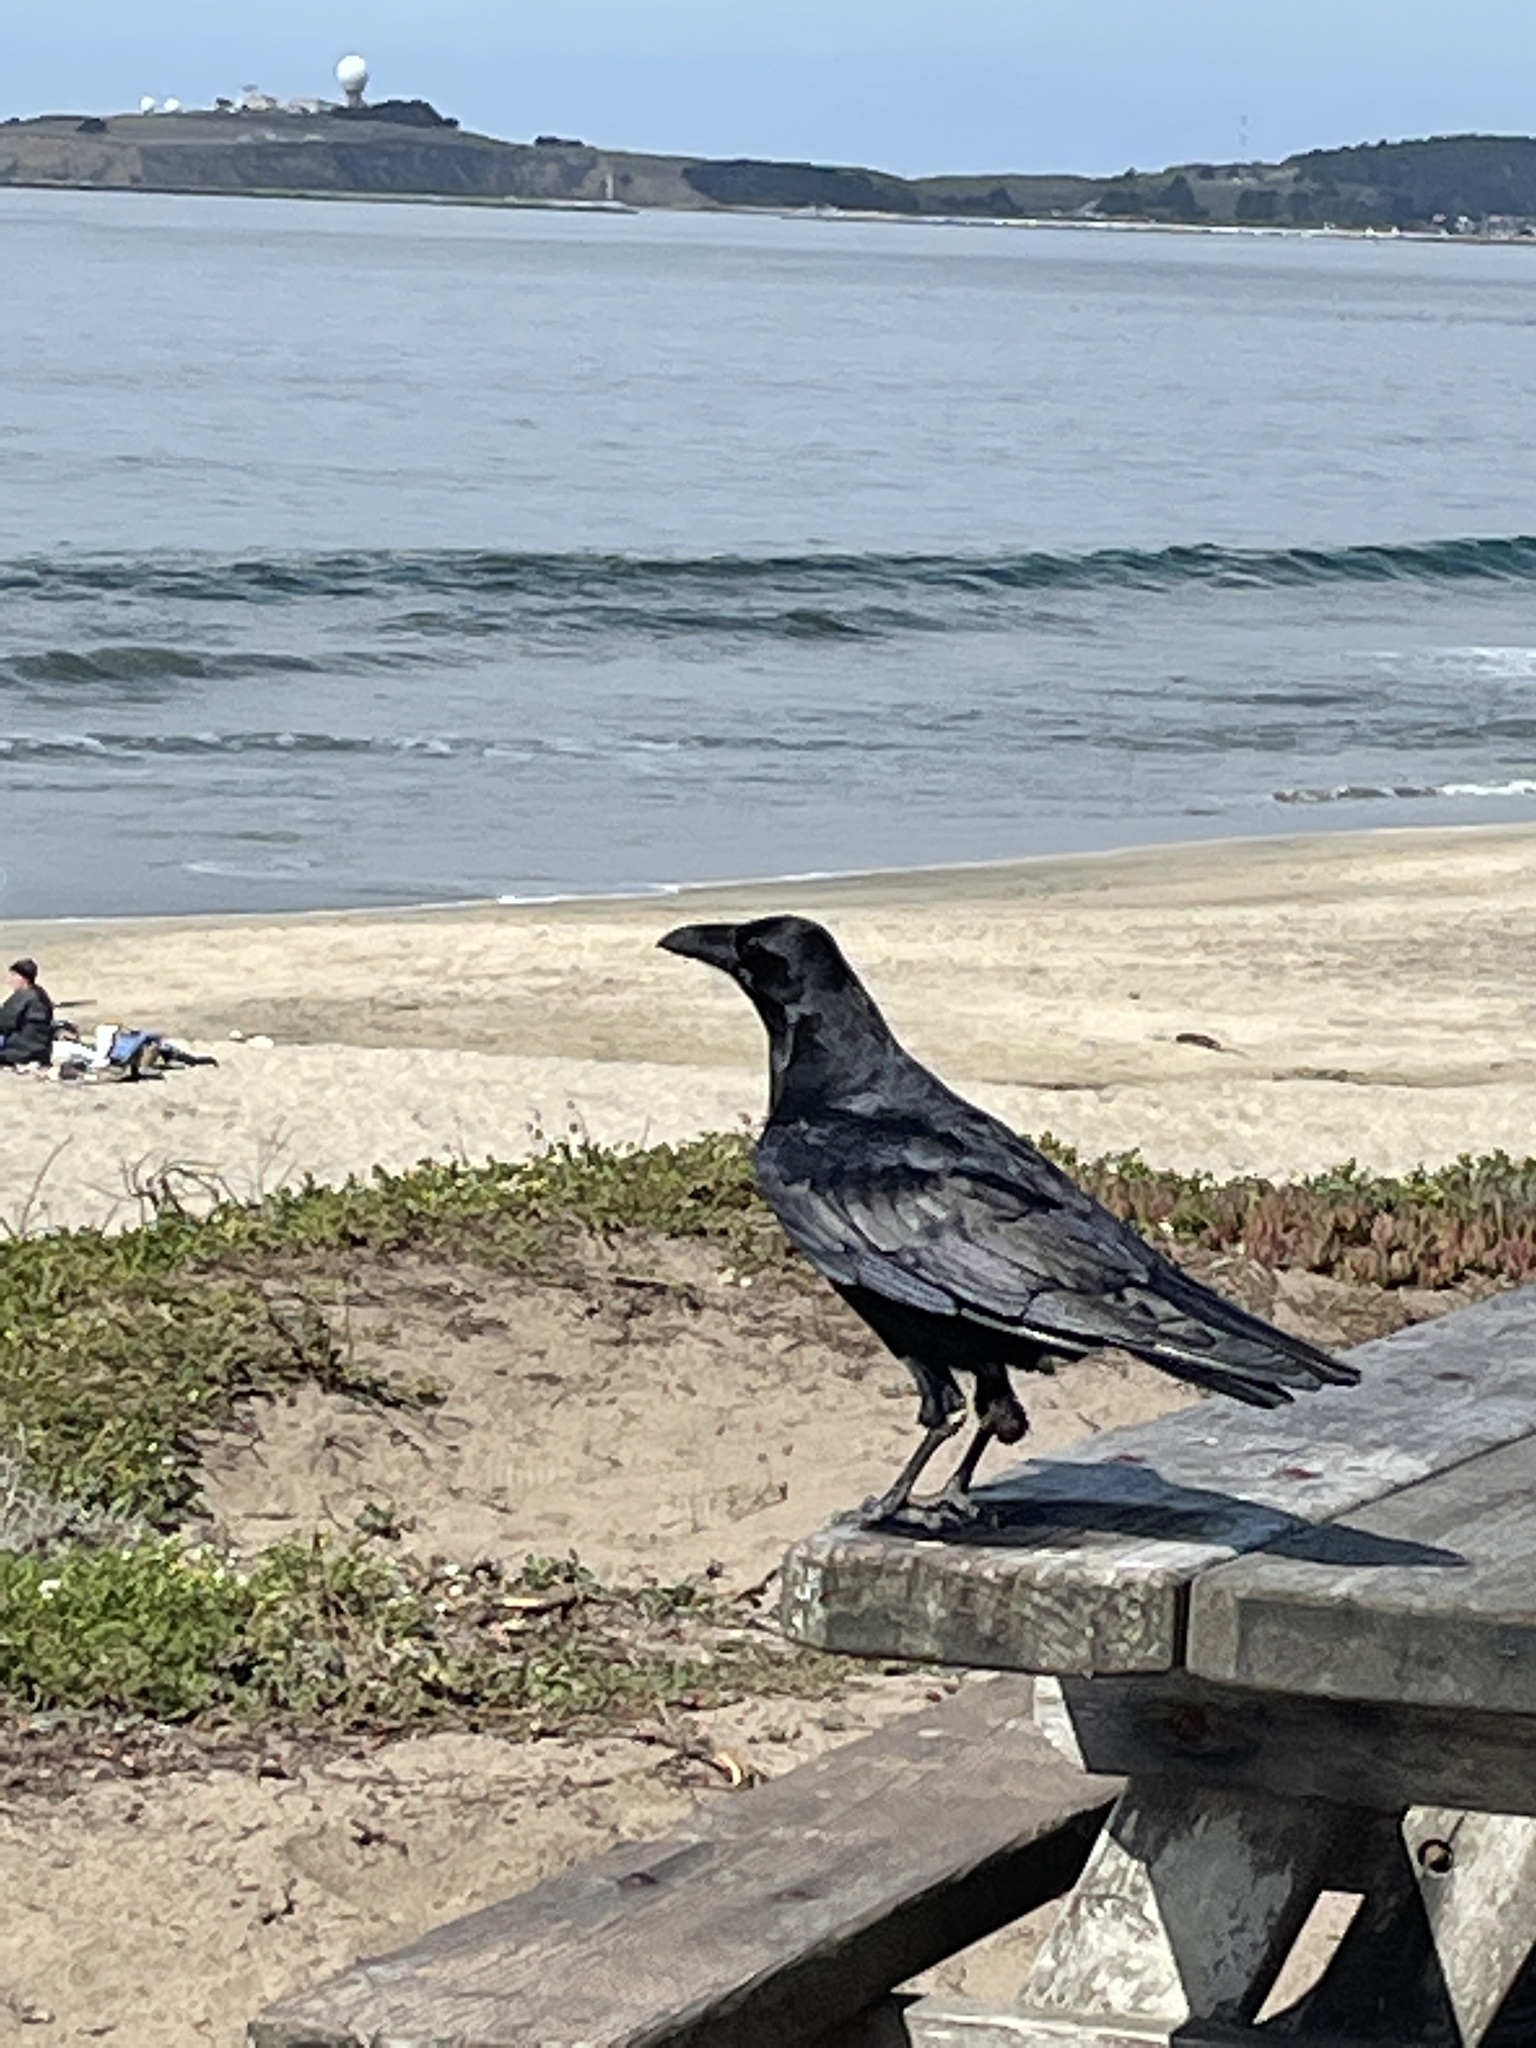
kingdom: Animalia
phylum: Chordata
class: Aves
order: Passeriformes
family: Corvidae
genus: Corvus
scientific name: Corvus corax
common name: Common raven
